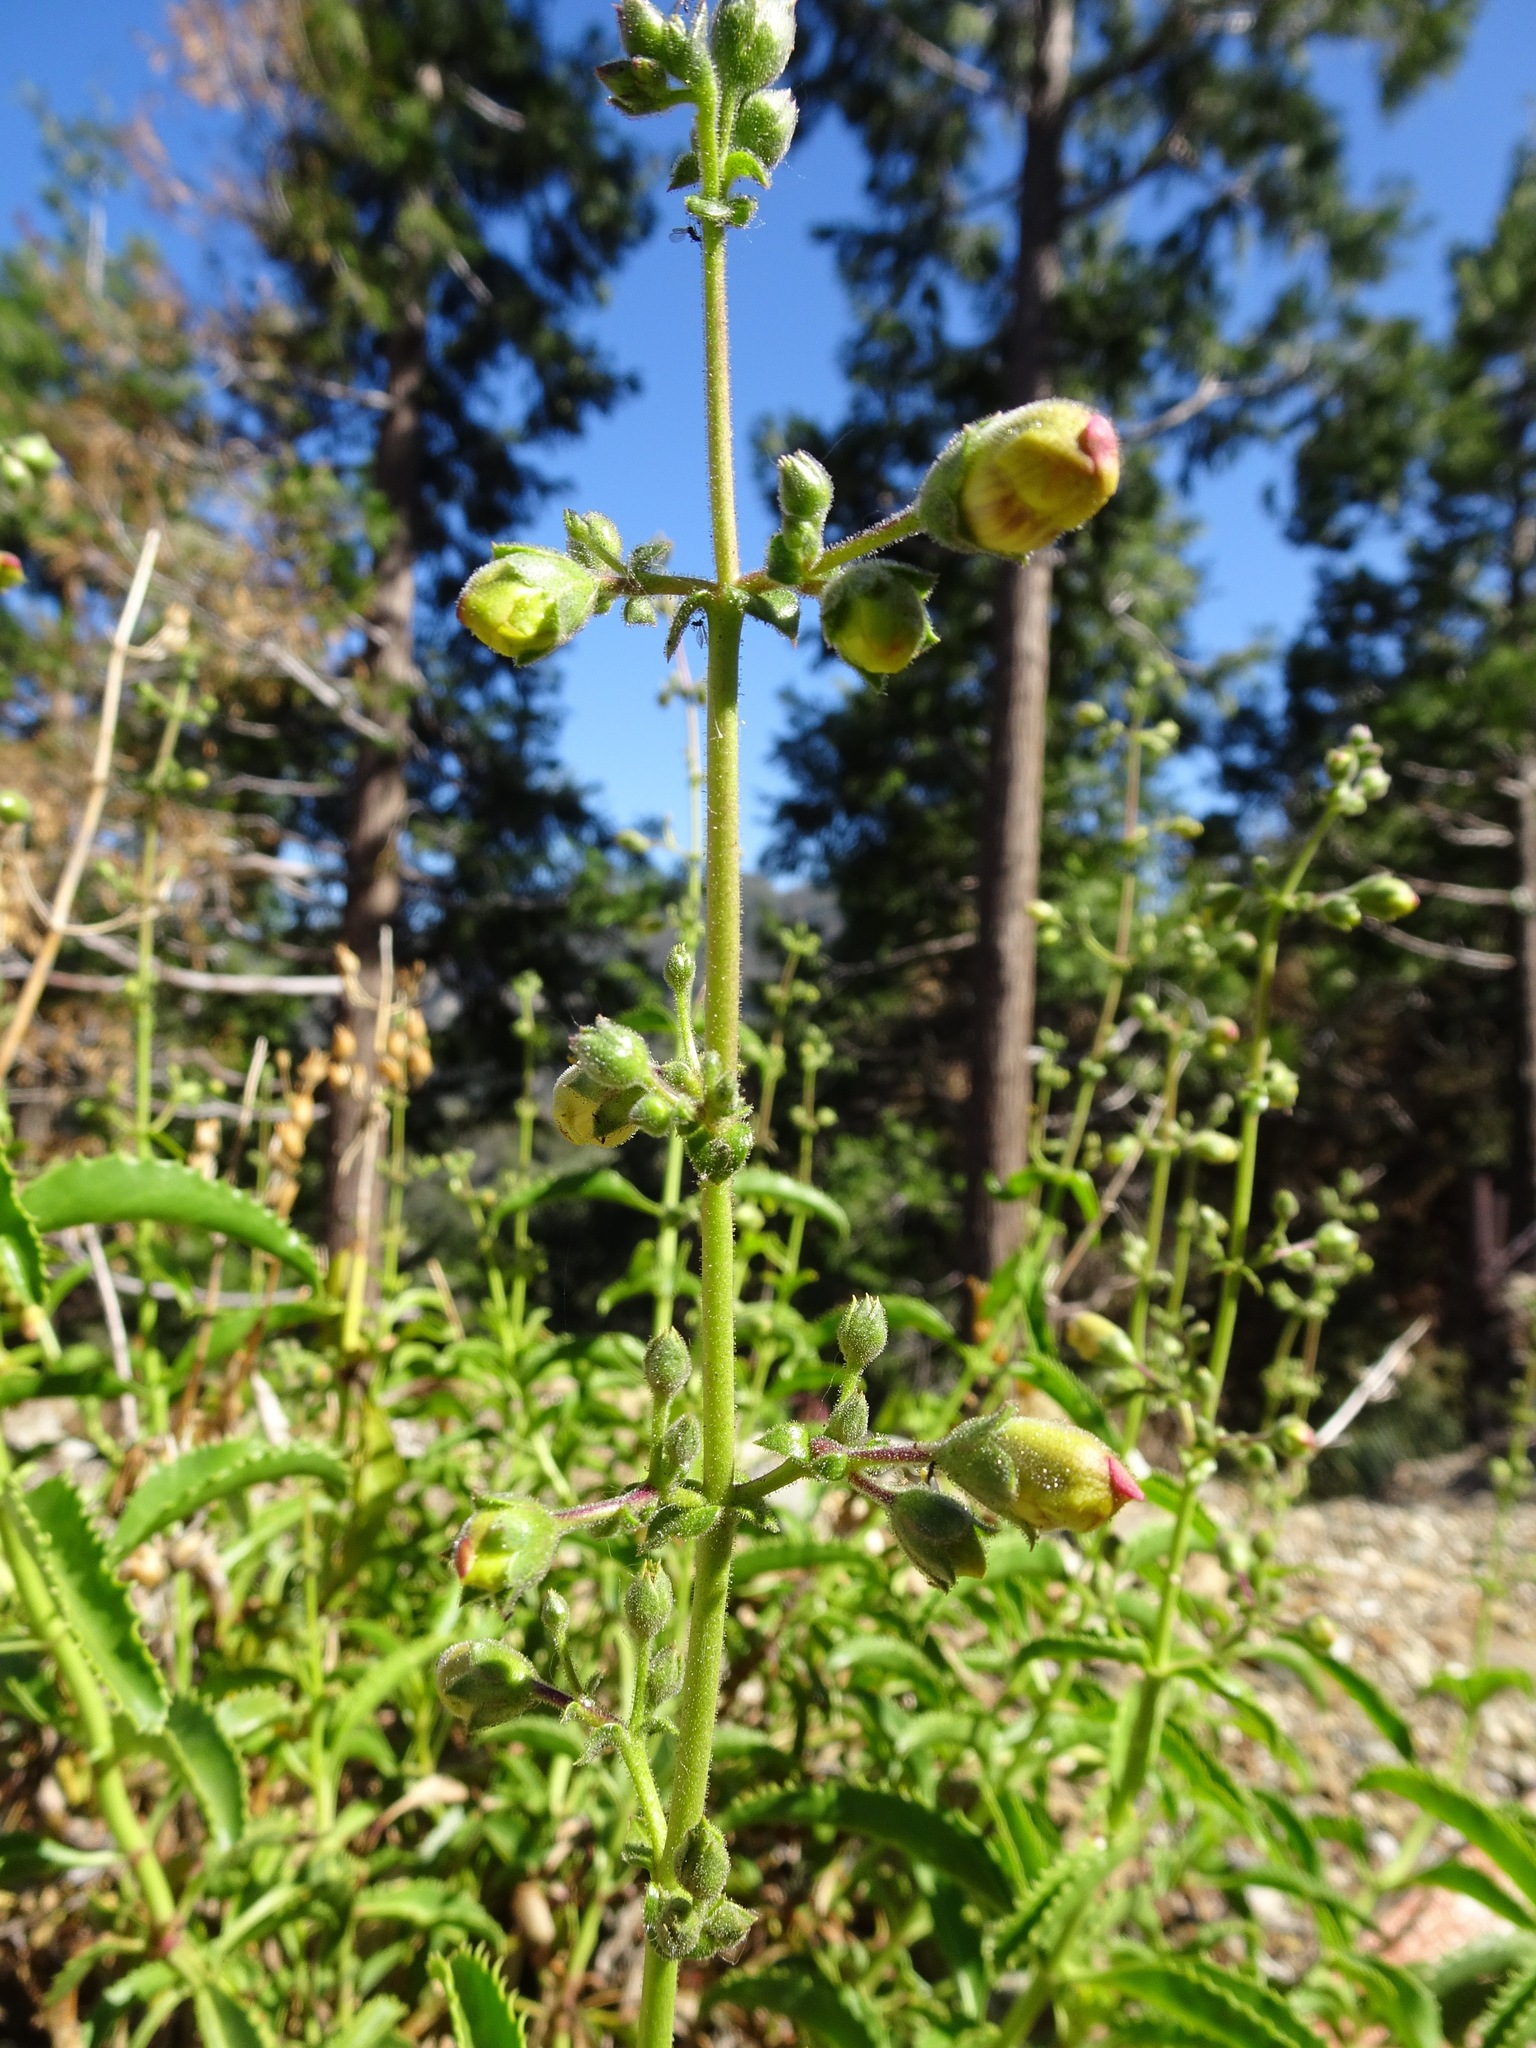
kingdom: Plantae
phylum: Tracheophyta
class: Magnoliopsida
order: Lamiales
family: Plantaginaceae
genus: Penstemon
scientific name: Penstemon grinnellii
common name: Grinnell's beardtongue
